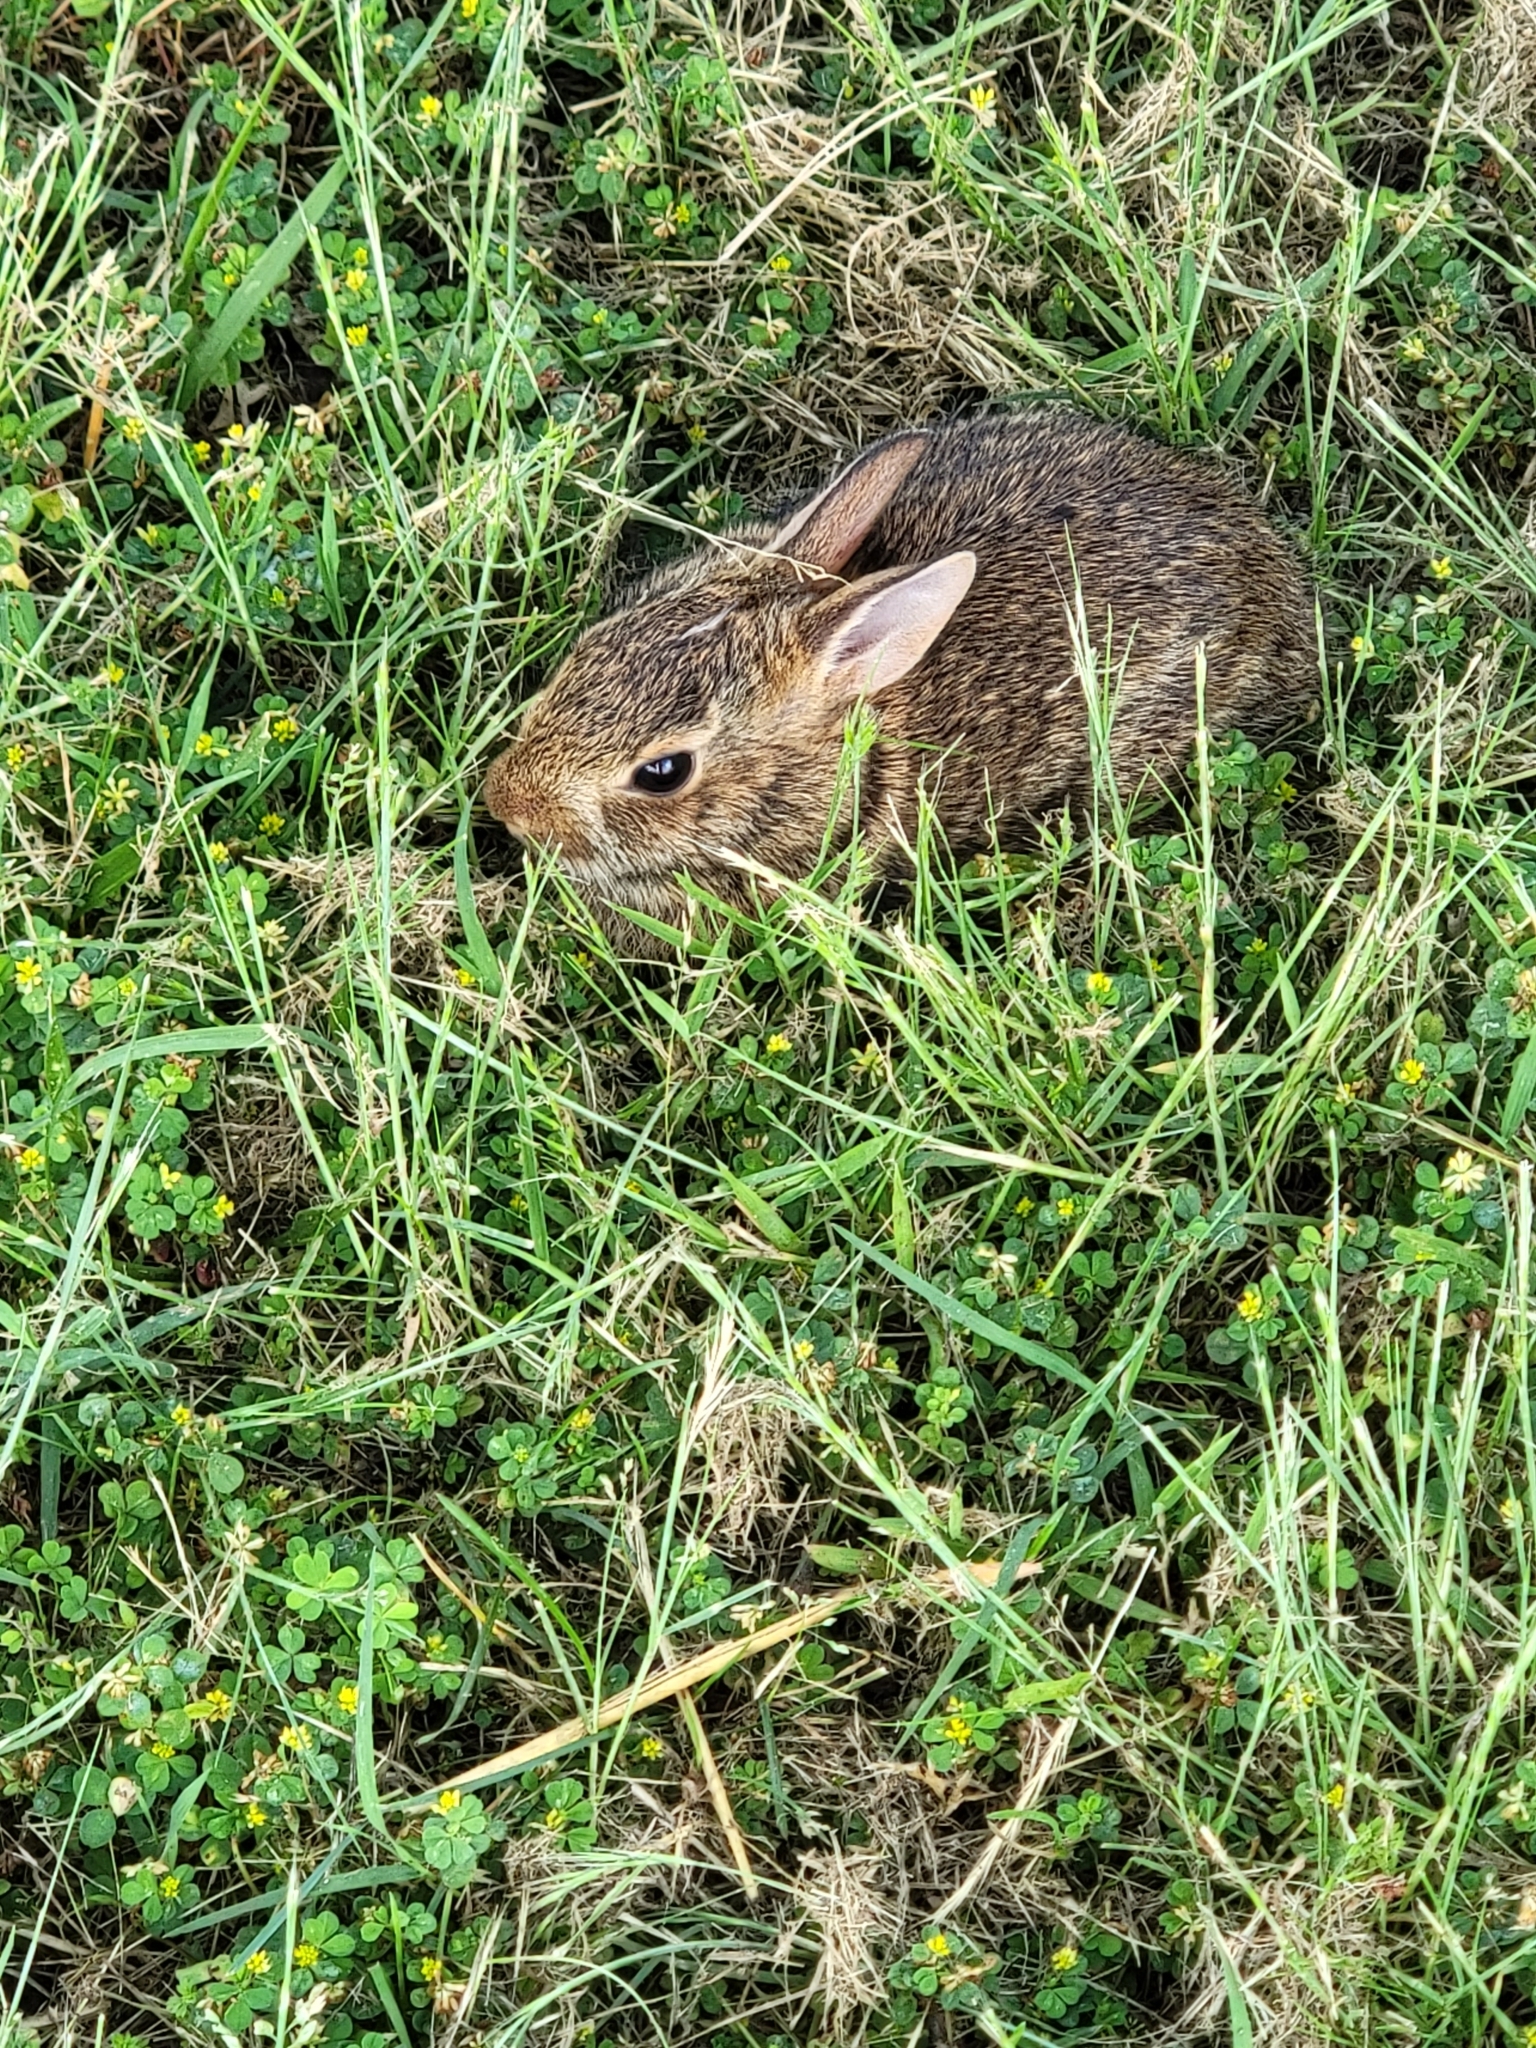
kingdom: Animalia
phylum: Chordata
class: Mammalia
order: Lagomorpha
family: Leporidae
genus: Sylvilagus
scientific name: Sylvilagus floridanus
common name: Eastern cottontail
